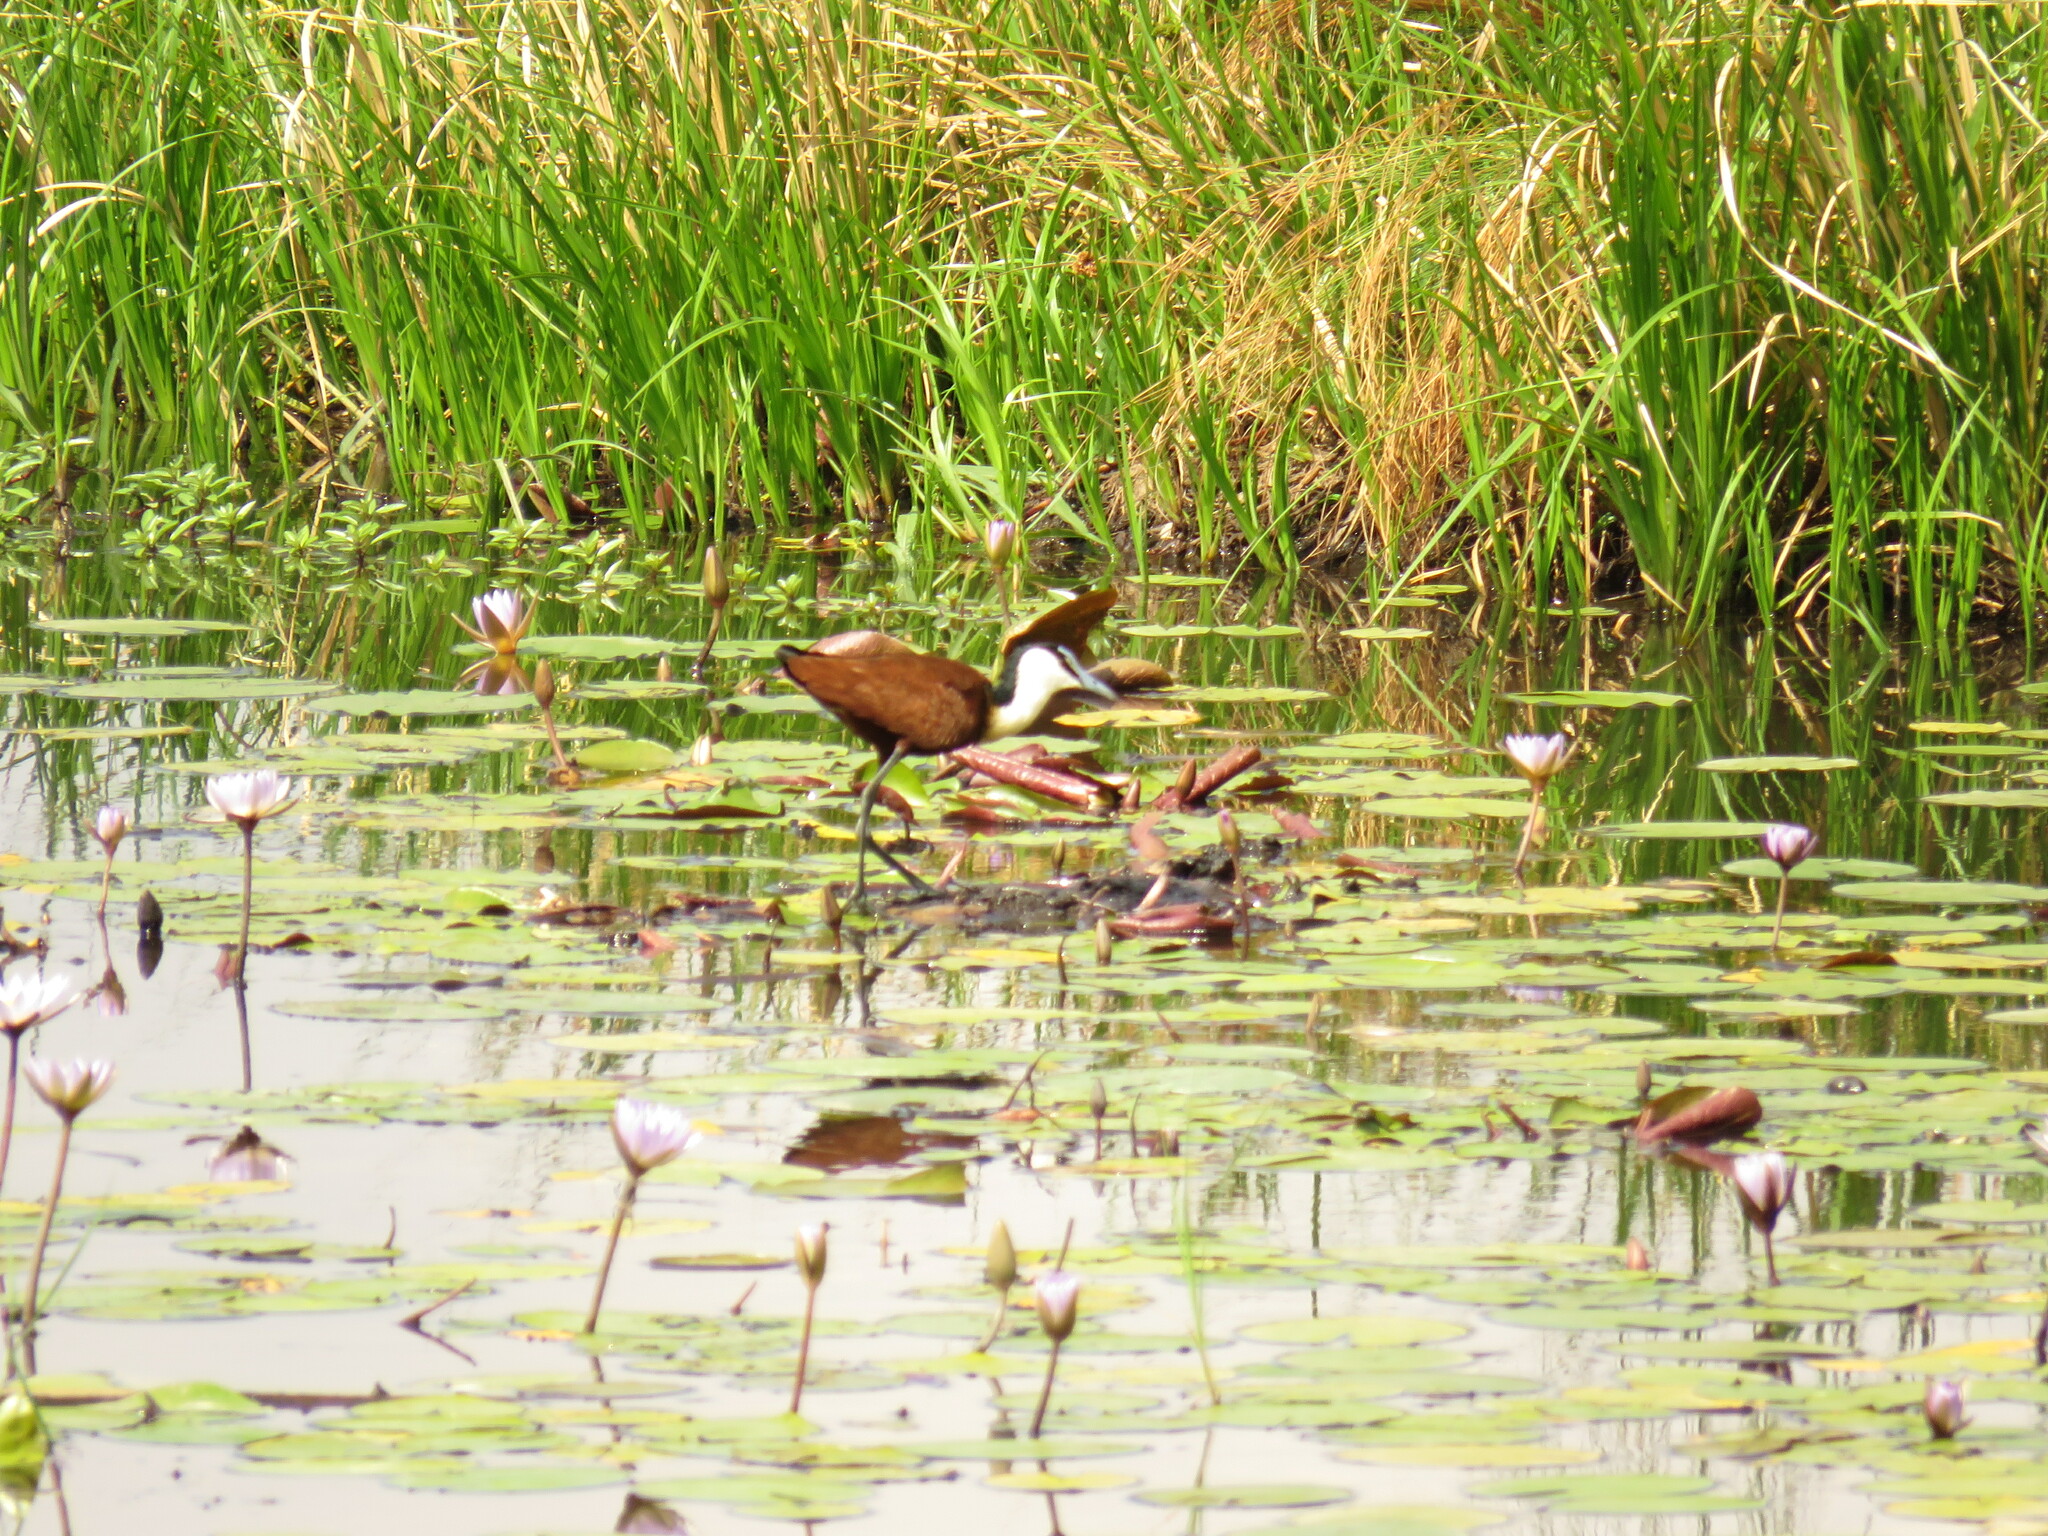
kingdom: Animalia
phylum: Chordata
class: Aves
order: Charadriiformes
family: Jacanidae
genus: Actophilornis
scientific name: Actophilornis africanus
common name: African jacana
